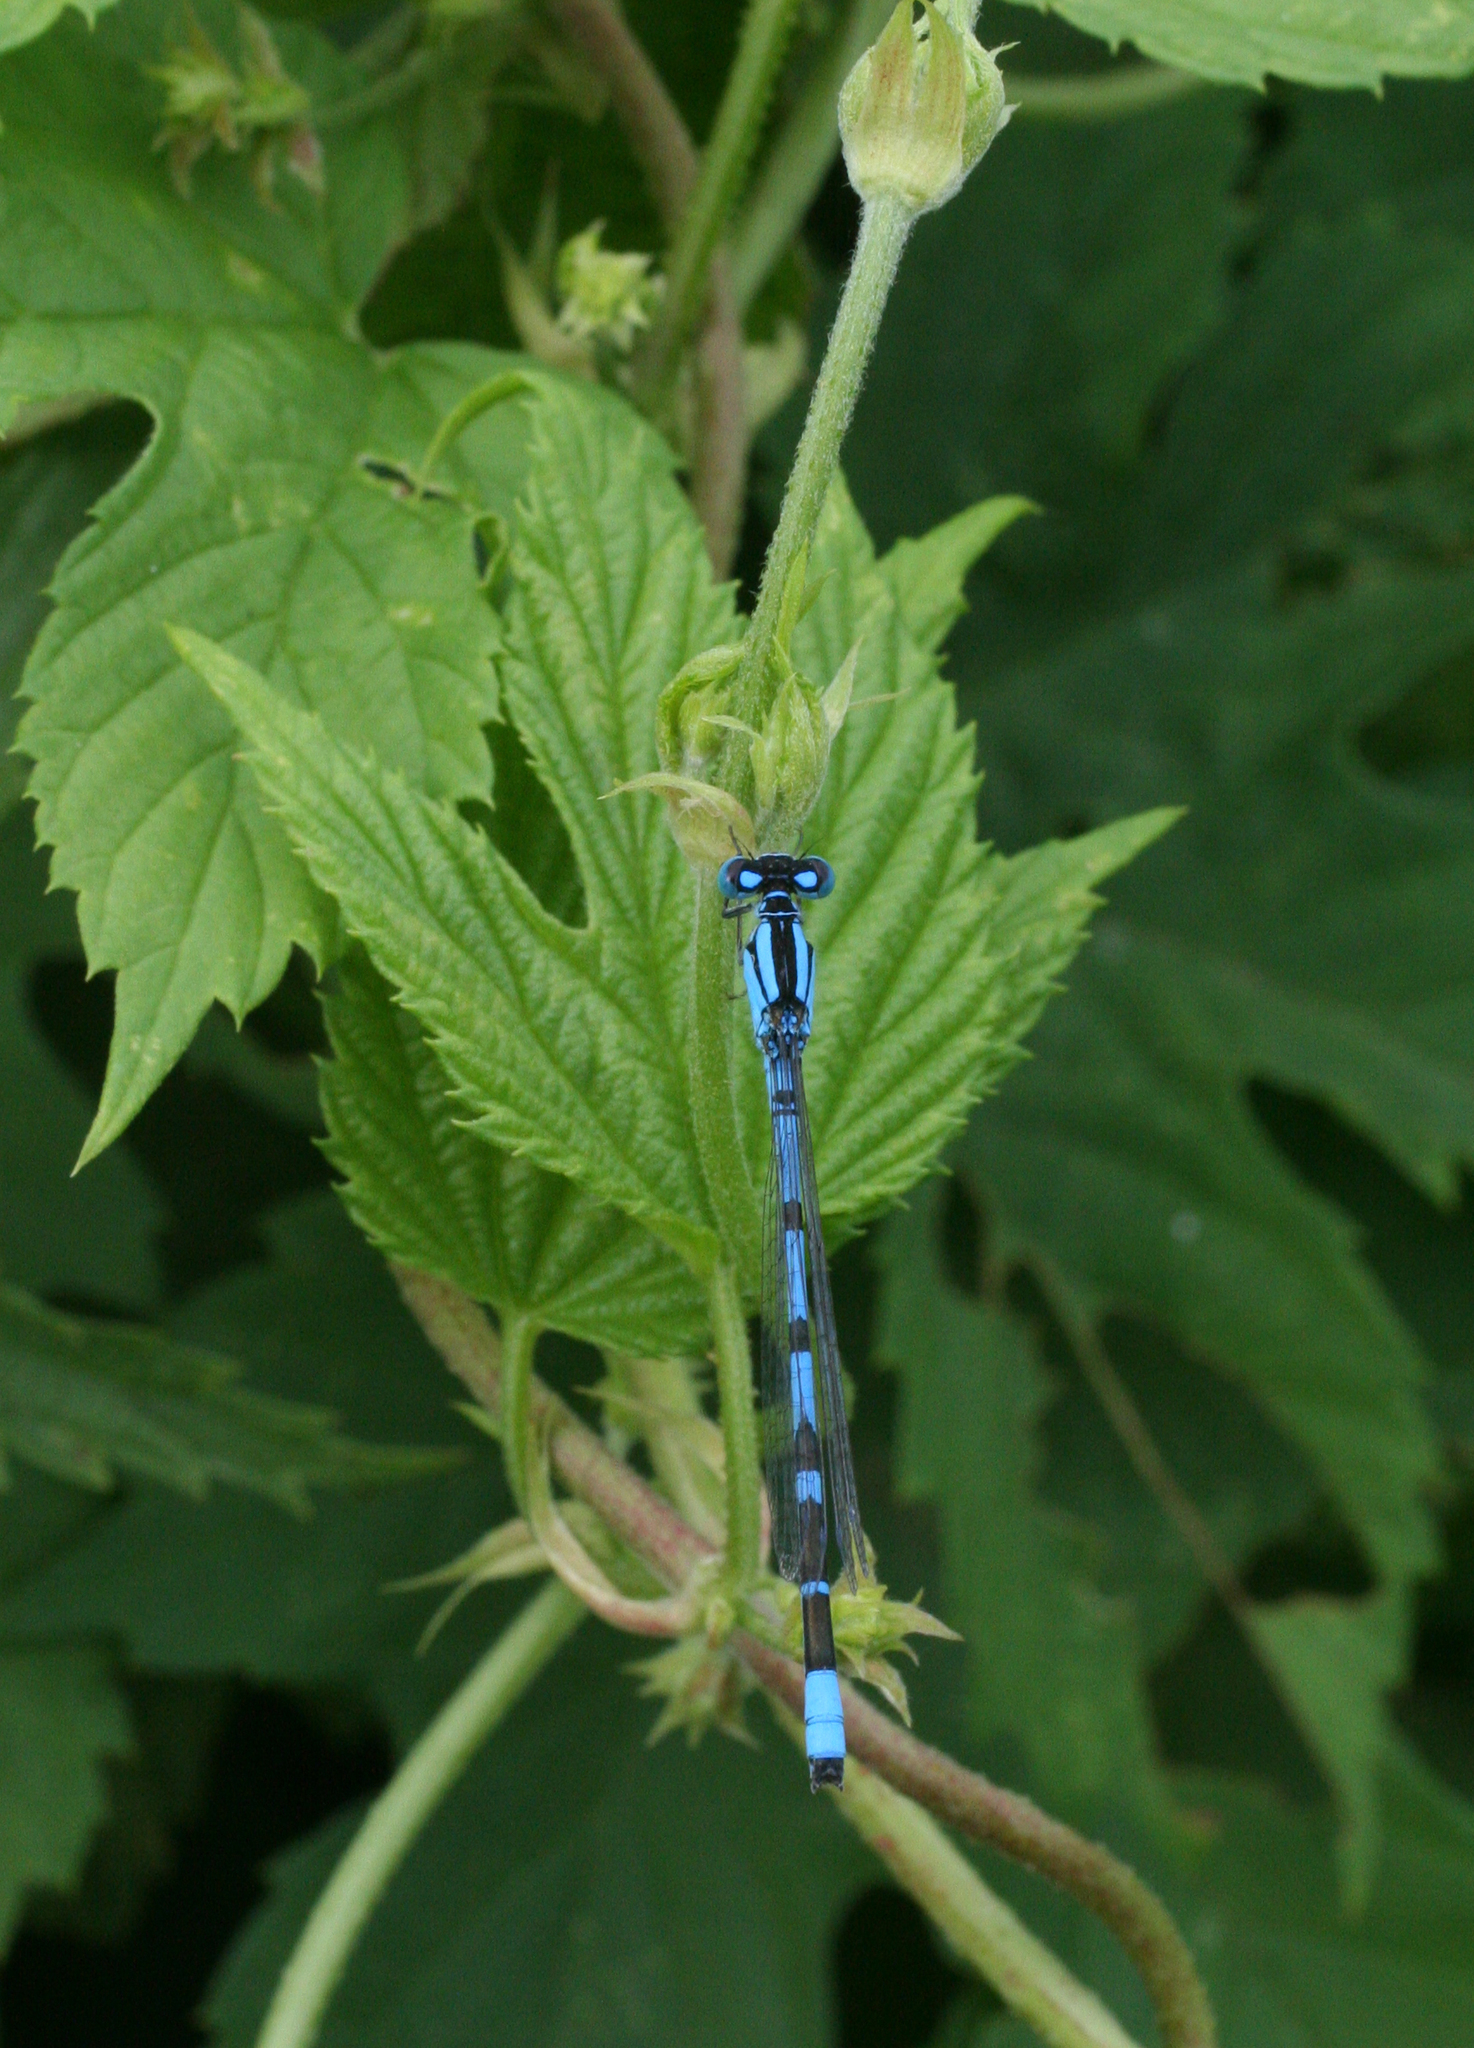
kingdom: Animalia
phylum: Arthropoda
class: Insecta
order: Odonata
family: Coenagrionidae
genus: Enallagma
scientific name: Enallagma cyathigerum
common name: Common blue damselfly
